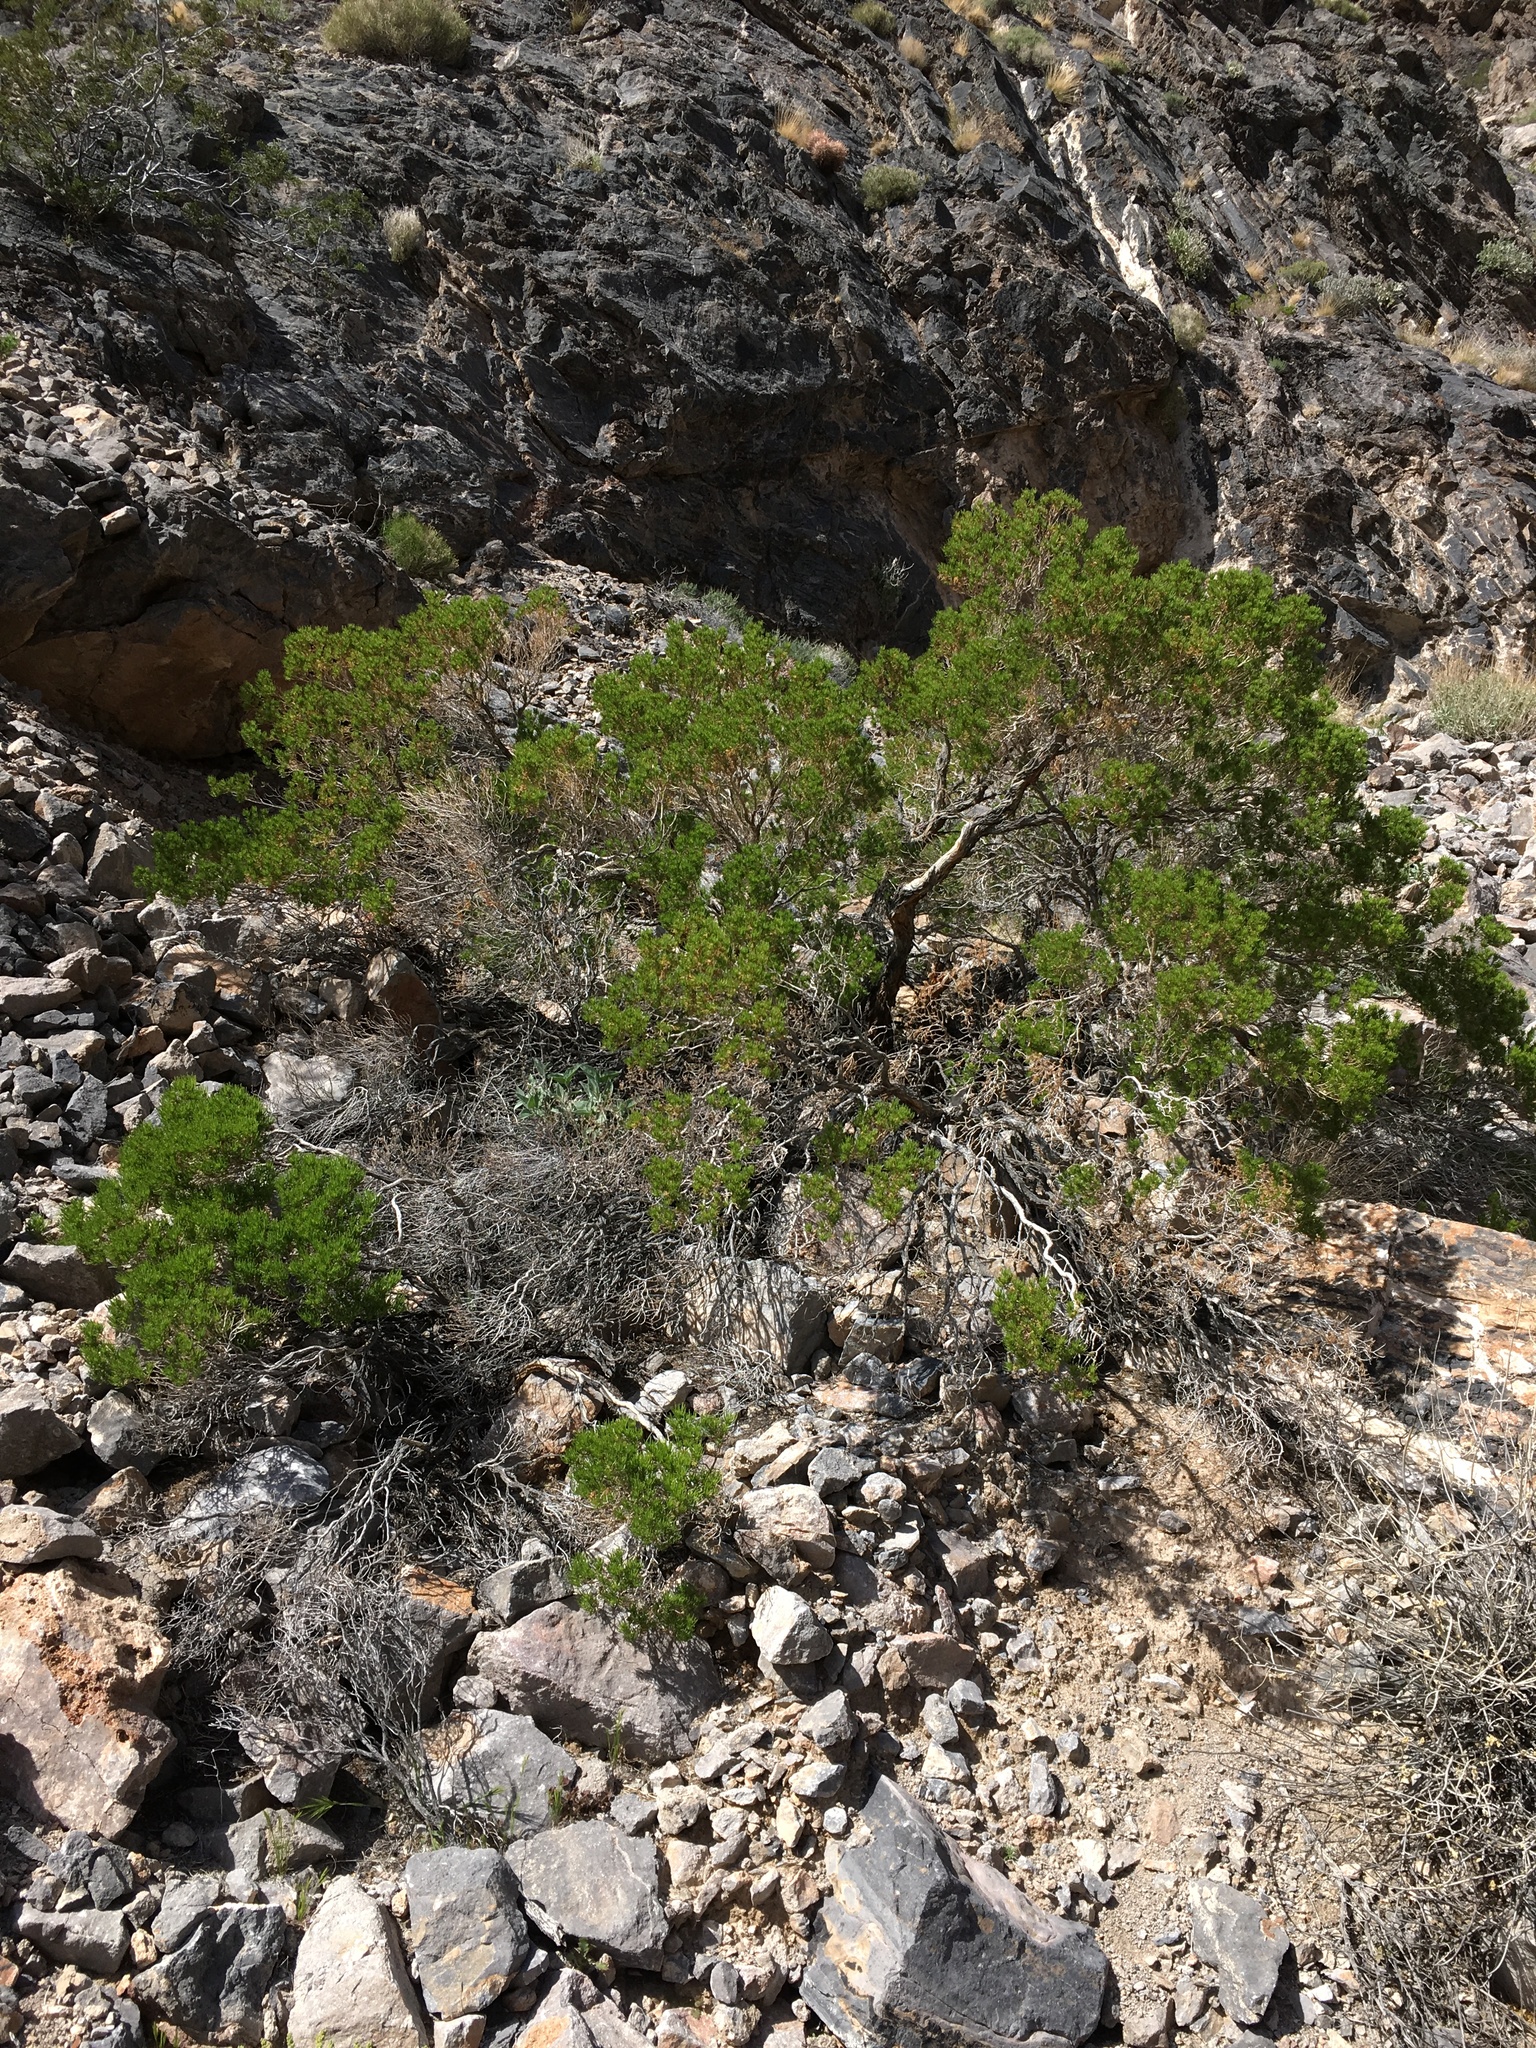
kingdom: Plantae
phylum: Tracheophyta
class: Magnoliopsida
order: Asterales
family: Asteraceae
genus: Peucephyllum
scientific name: Peucephyllum schottii
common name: Pygmy-cedar
